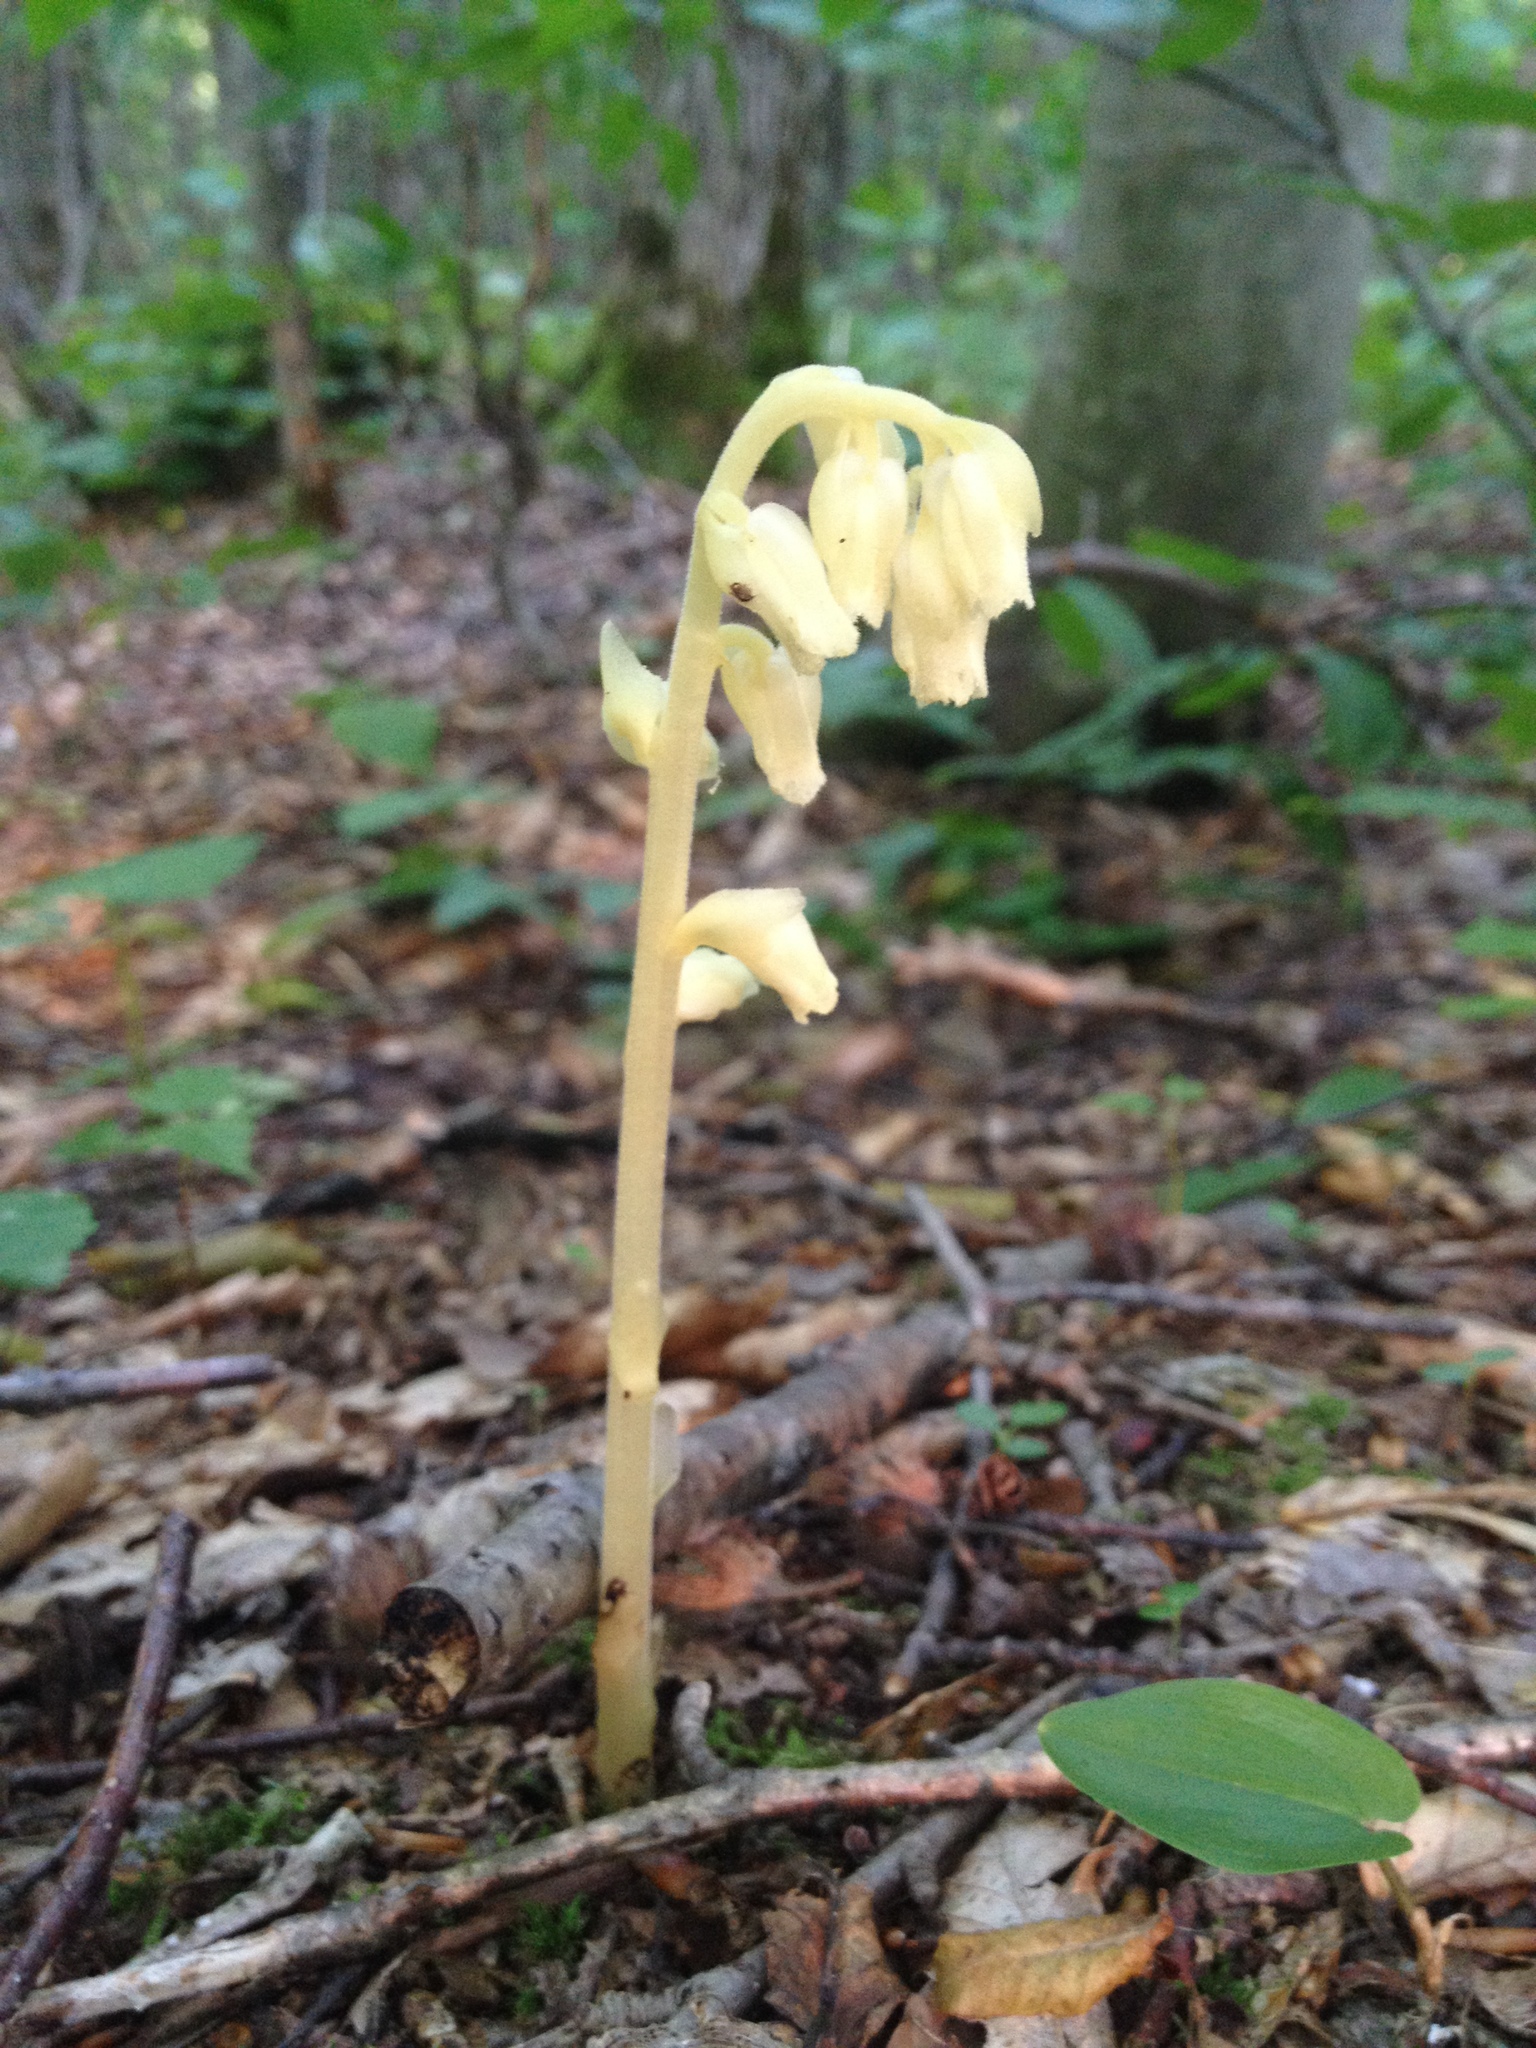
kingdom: Plantae
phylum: Tracheophyta
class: Magnoliopsida
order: Ericales
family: Ericaceae
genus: Hypopitys
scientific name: Hypopitys monotropa
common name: Yellow bird's-nest
